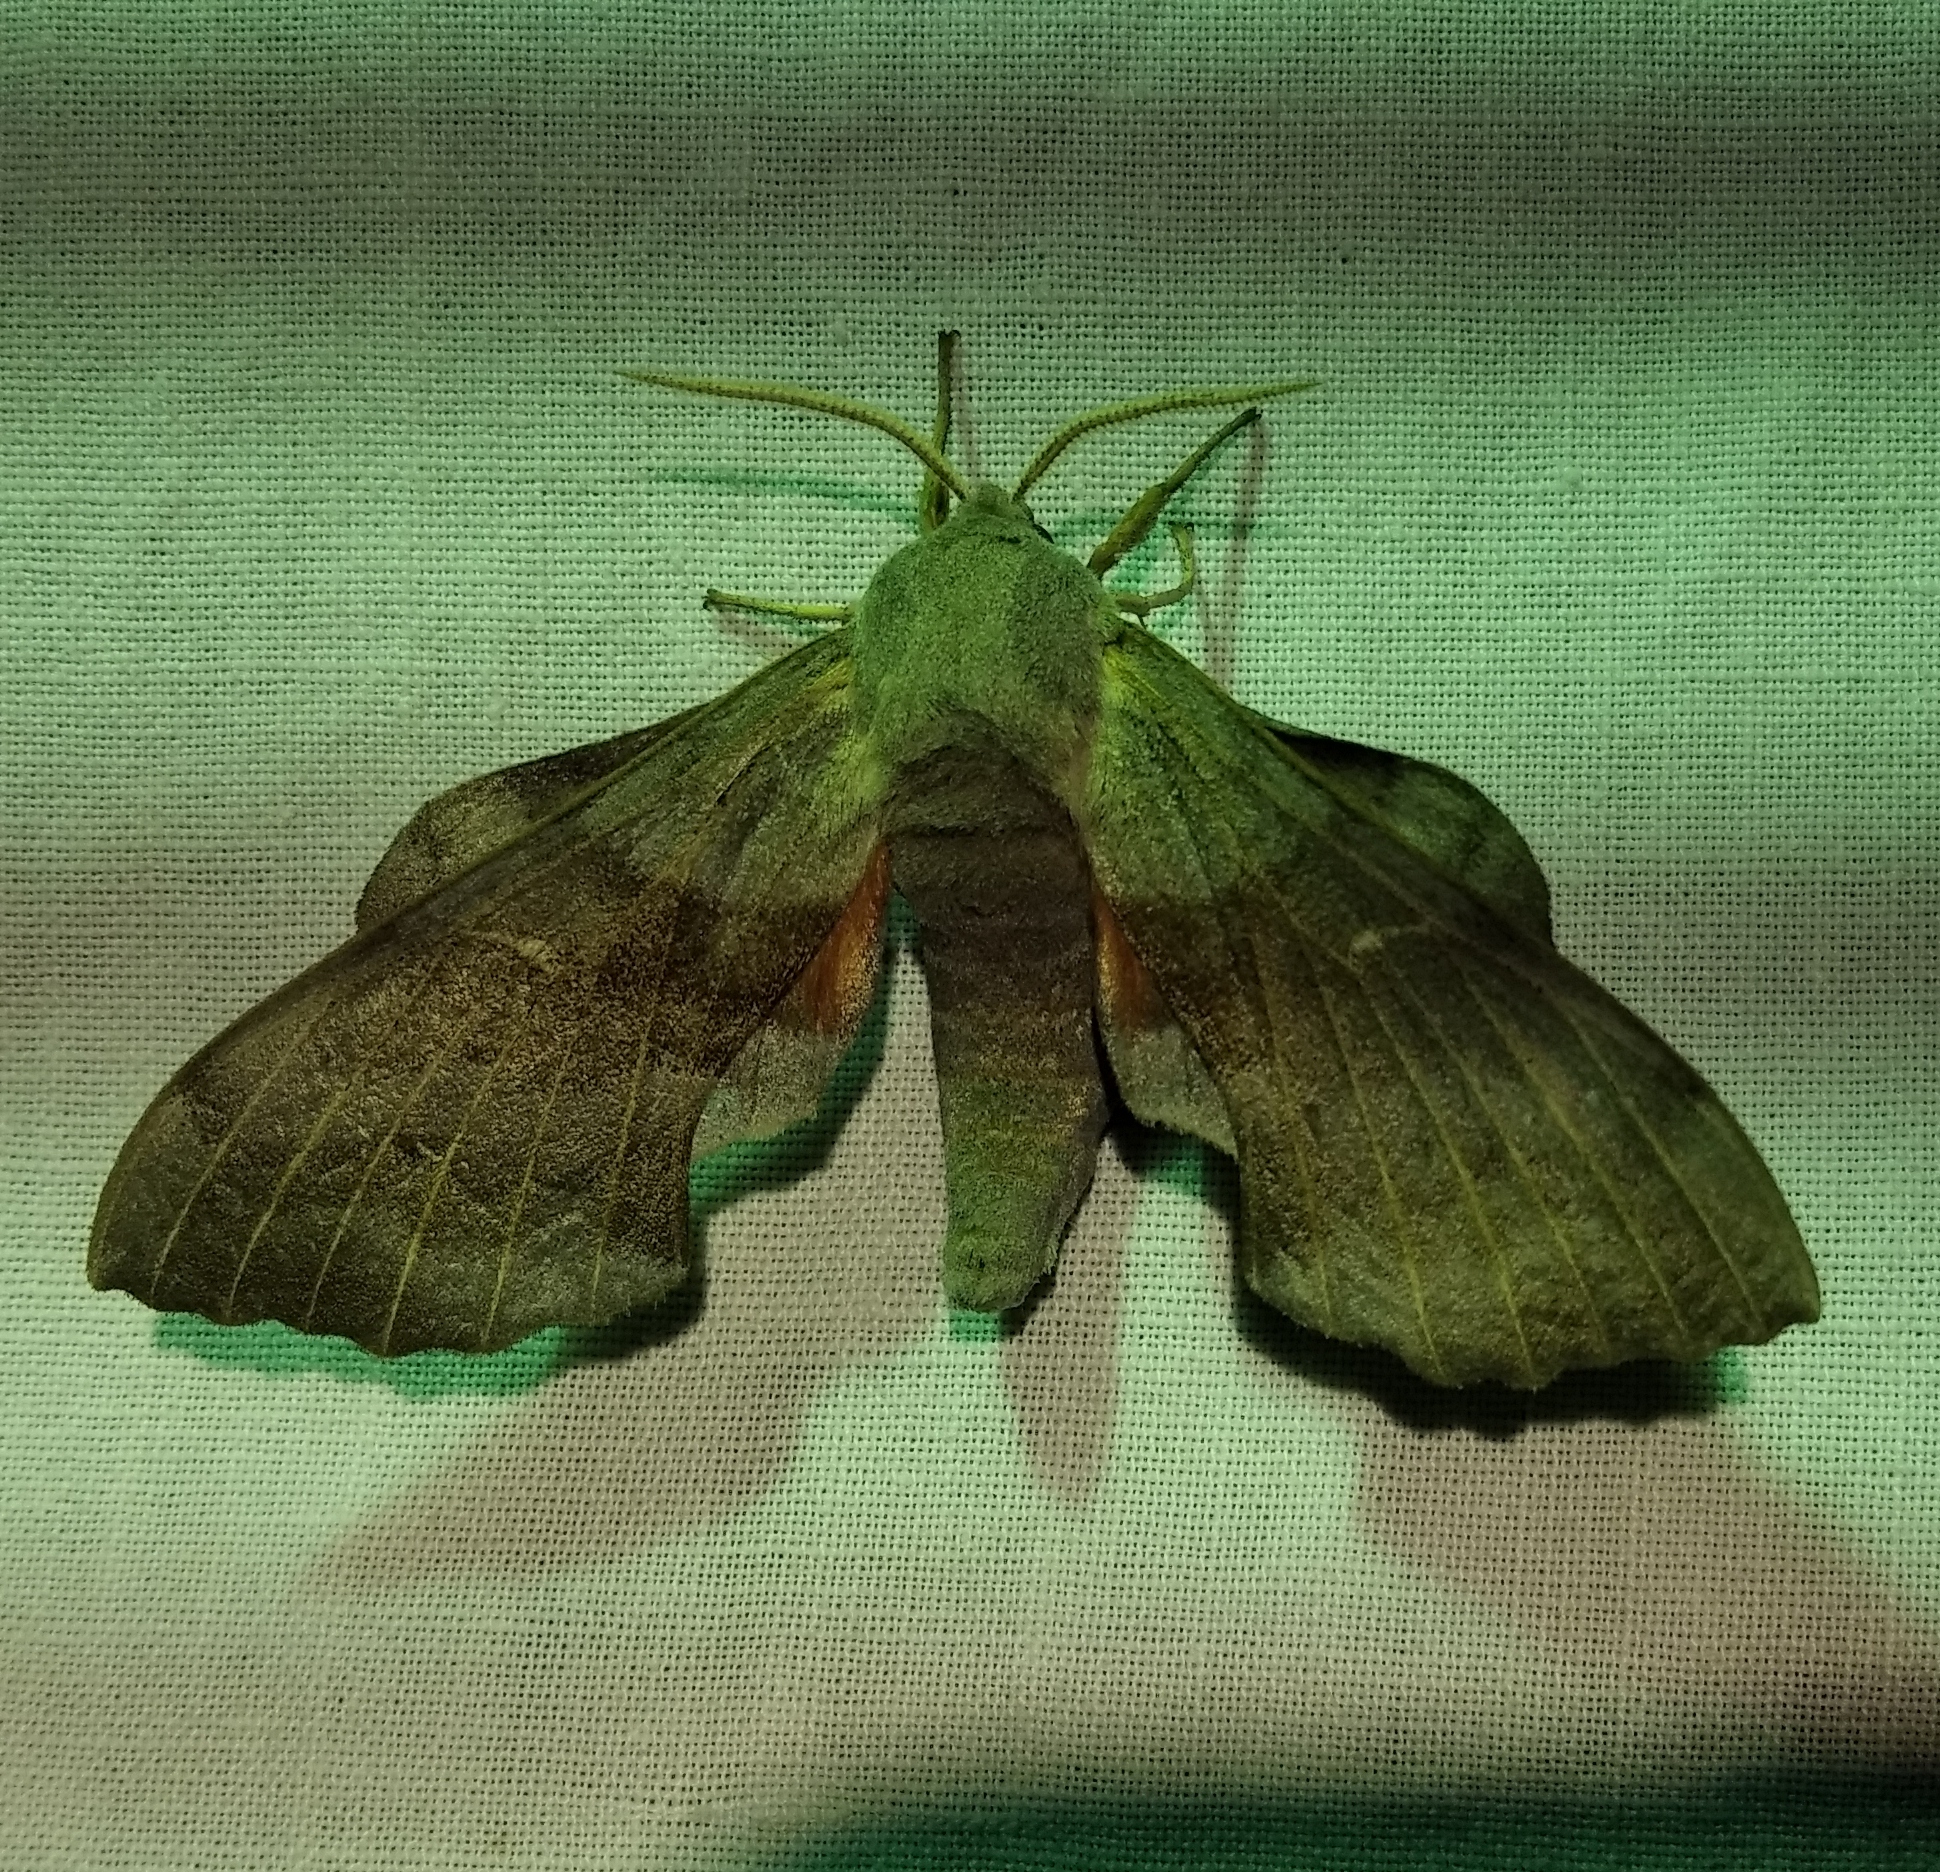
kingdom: Animalia
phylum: Arthropoda
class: Insecta
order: Lepidoptera
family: Sphingidae
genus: Laothoe
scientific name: Laothoe populi
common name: Poplar hawk-moth
